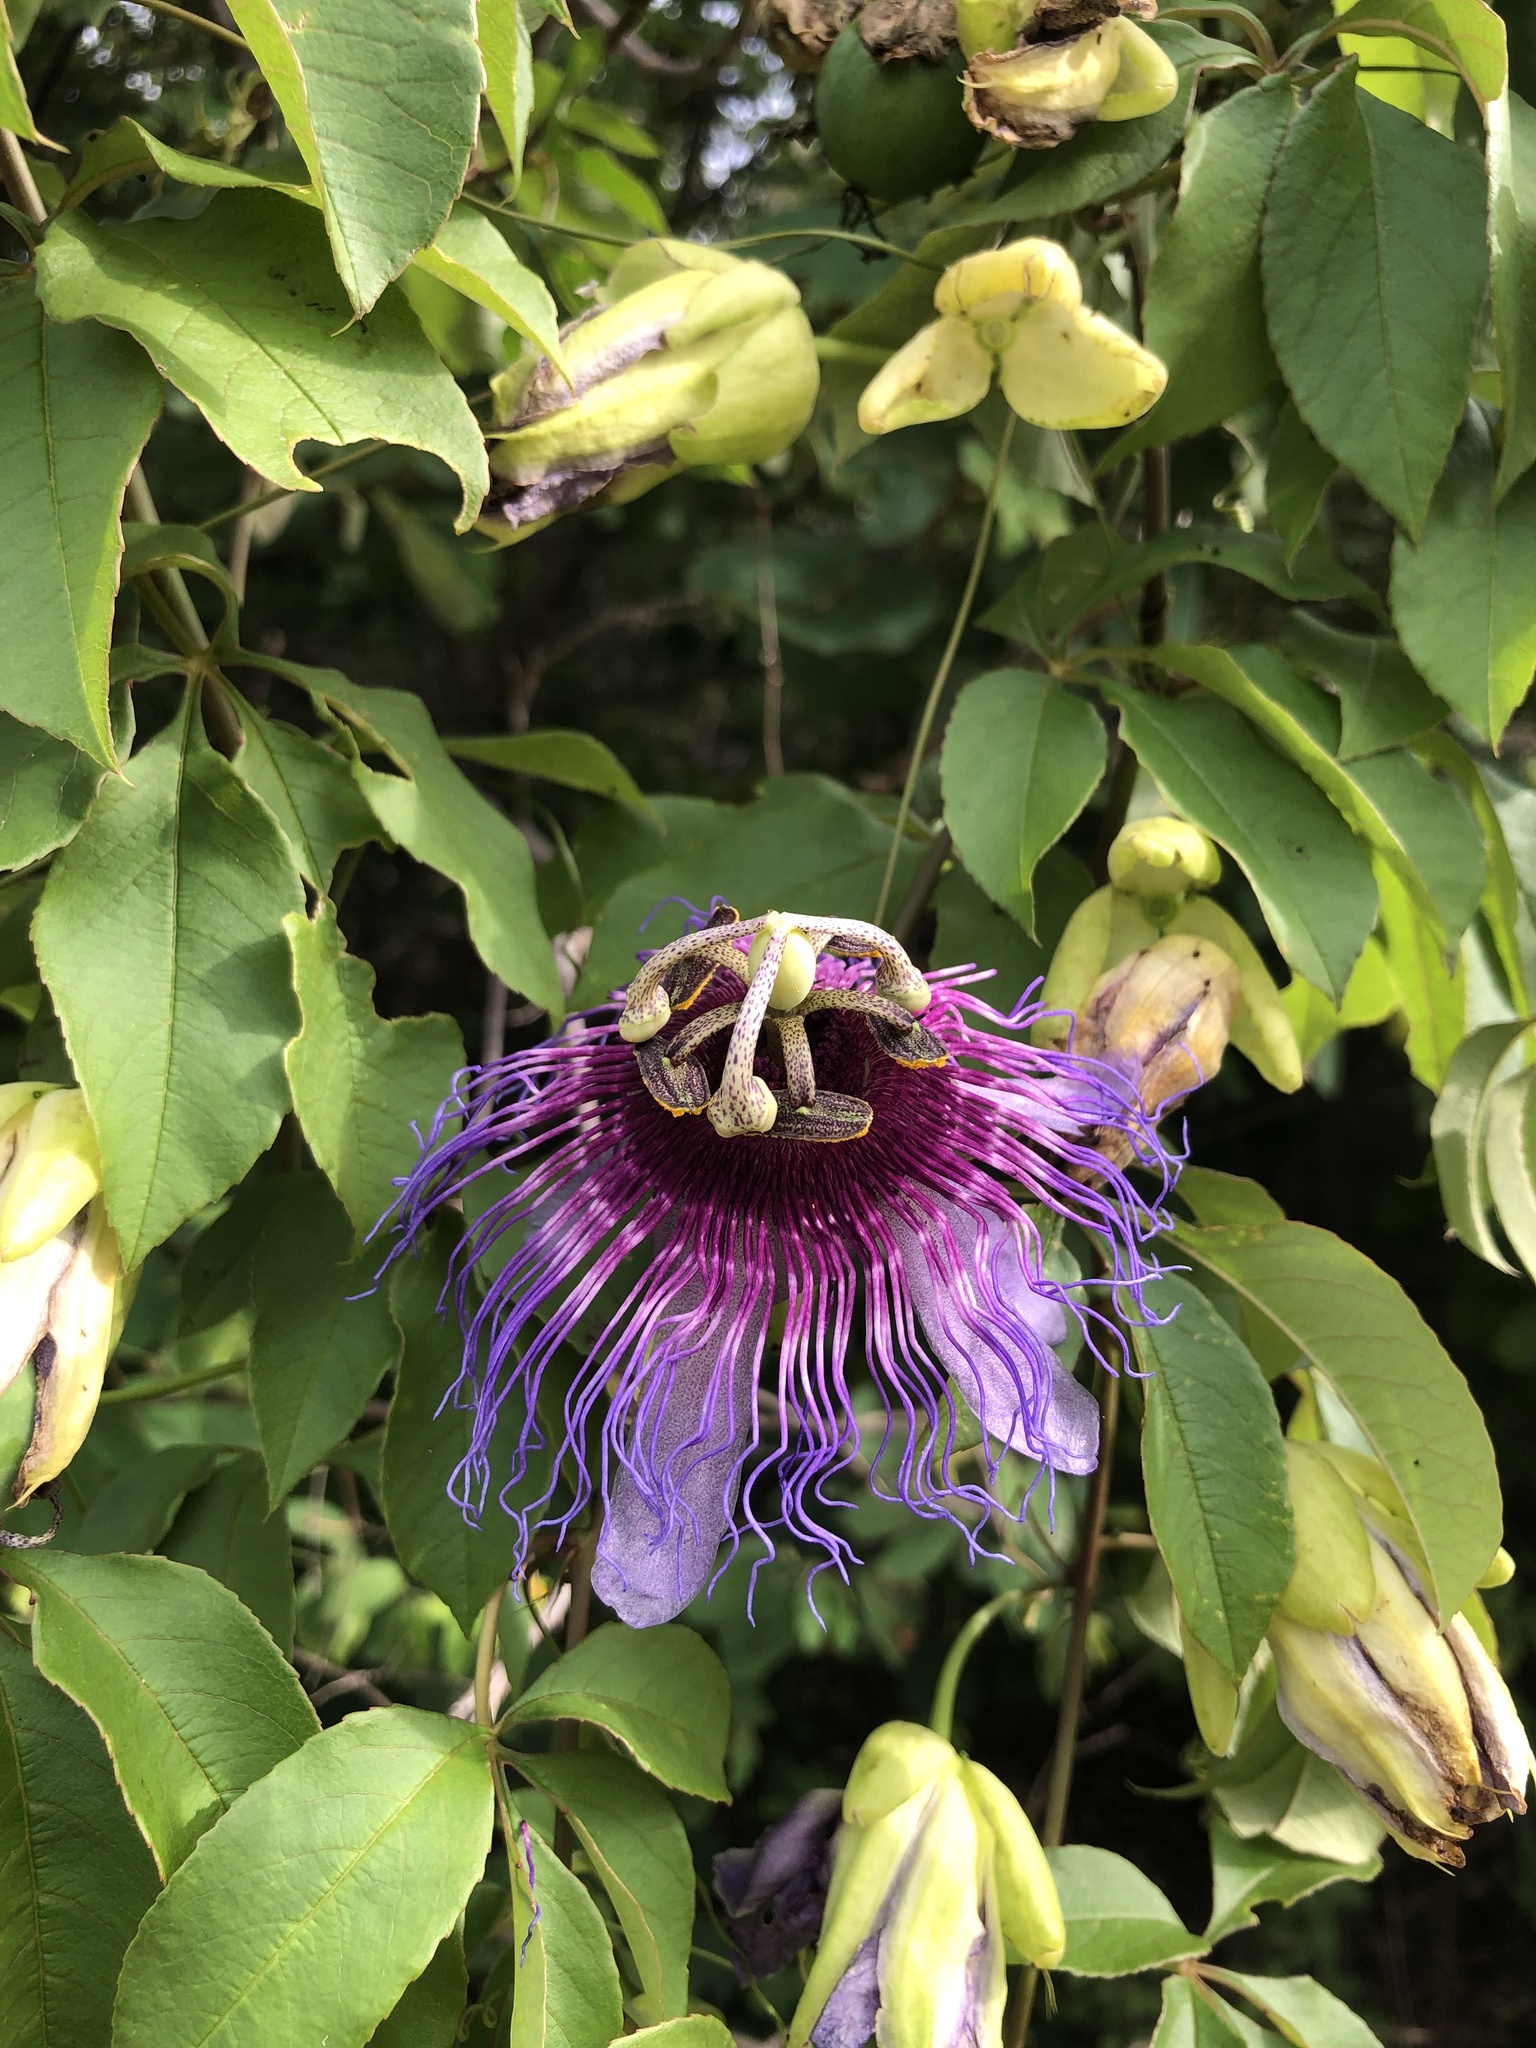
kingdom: Plantae
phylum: Tracheophyta
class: Magnoliopsida
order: Malpighiales
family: Passifloraceae
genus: Passiflora
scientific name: Passiflora cincinnata
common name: Crato passionvine
